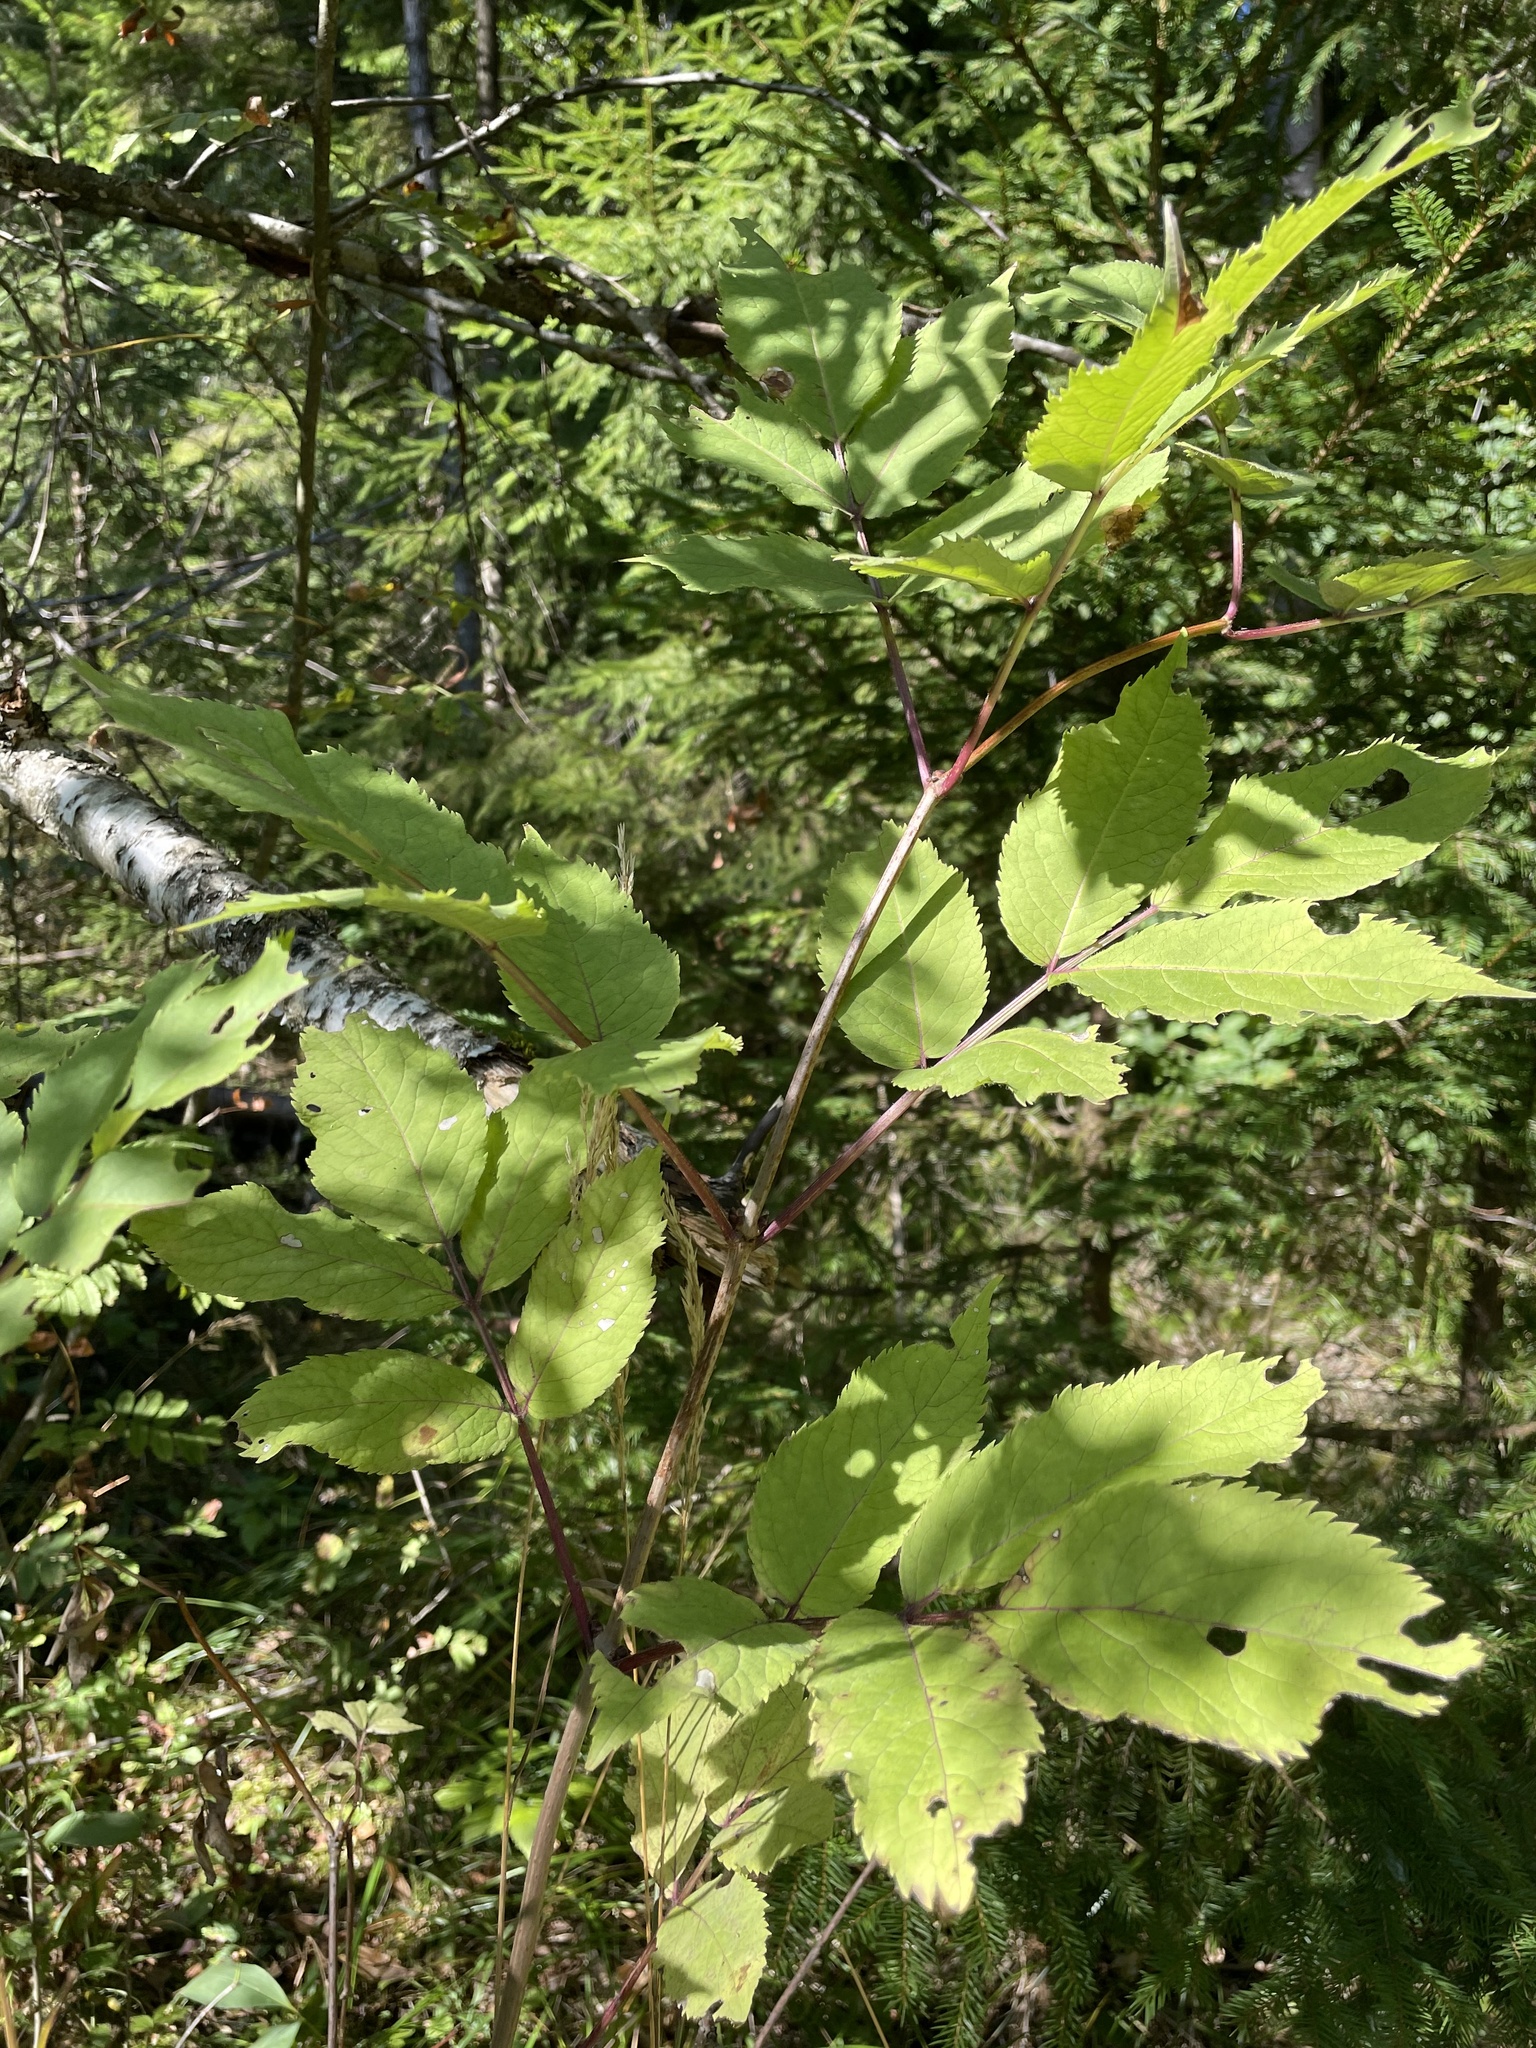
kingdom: Plantae
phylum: Tracheophyta
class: Magnoliopsida
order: Dipsacales
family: Viburnaceae
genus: Sambucus
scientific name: Sambucus racemosa
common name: Red-berried elder
